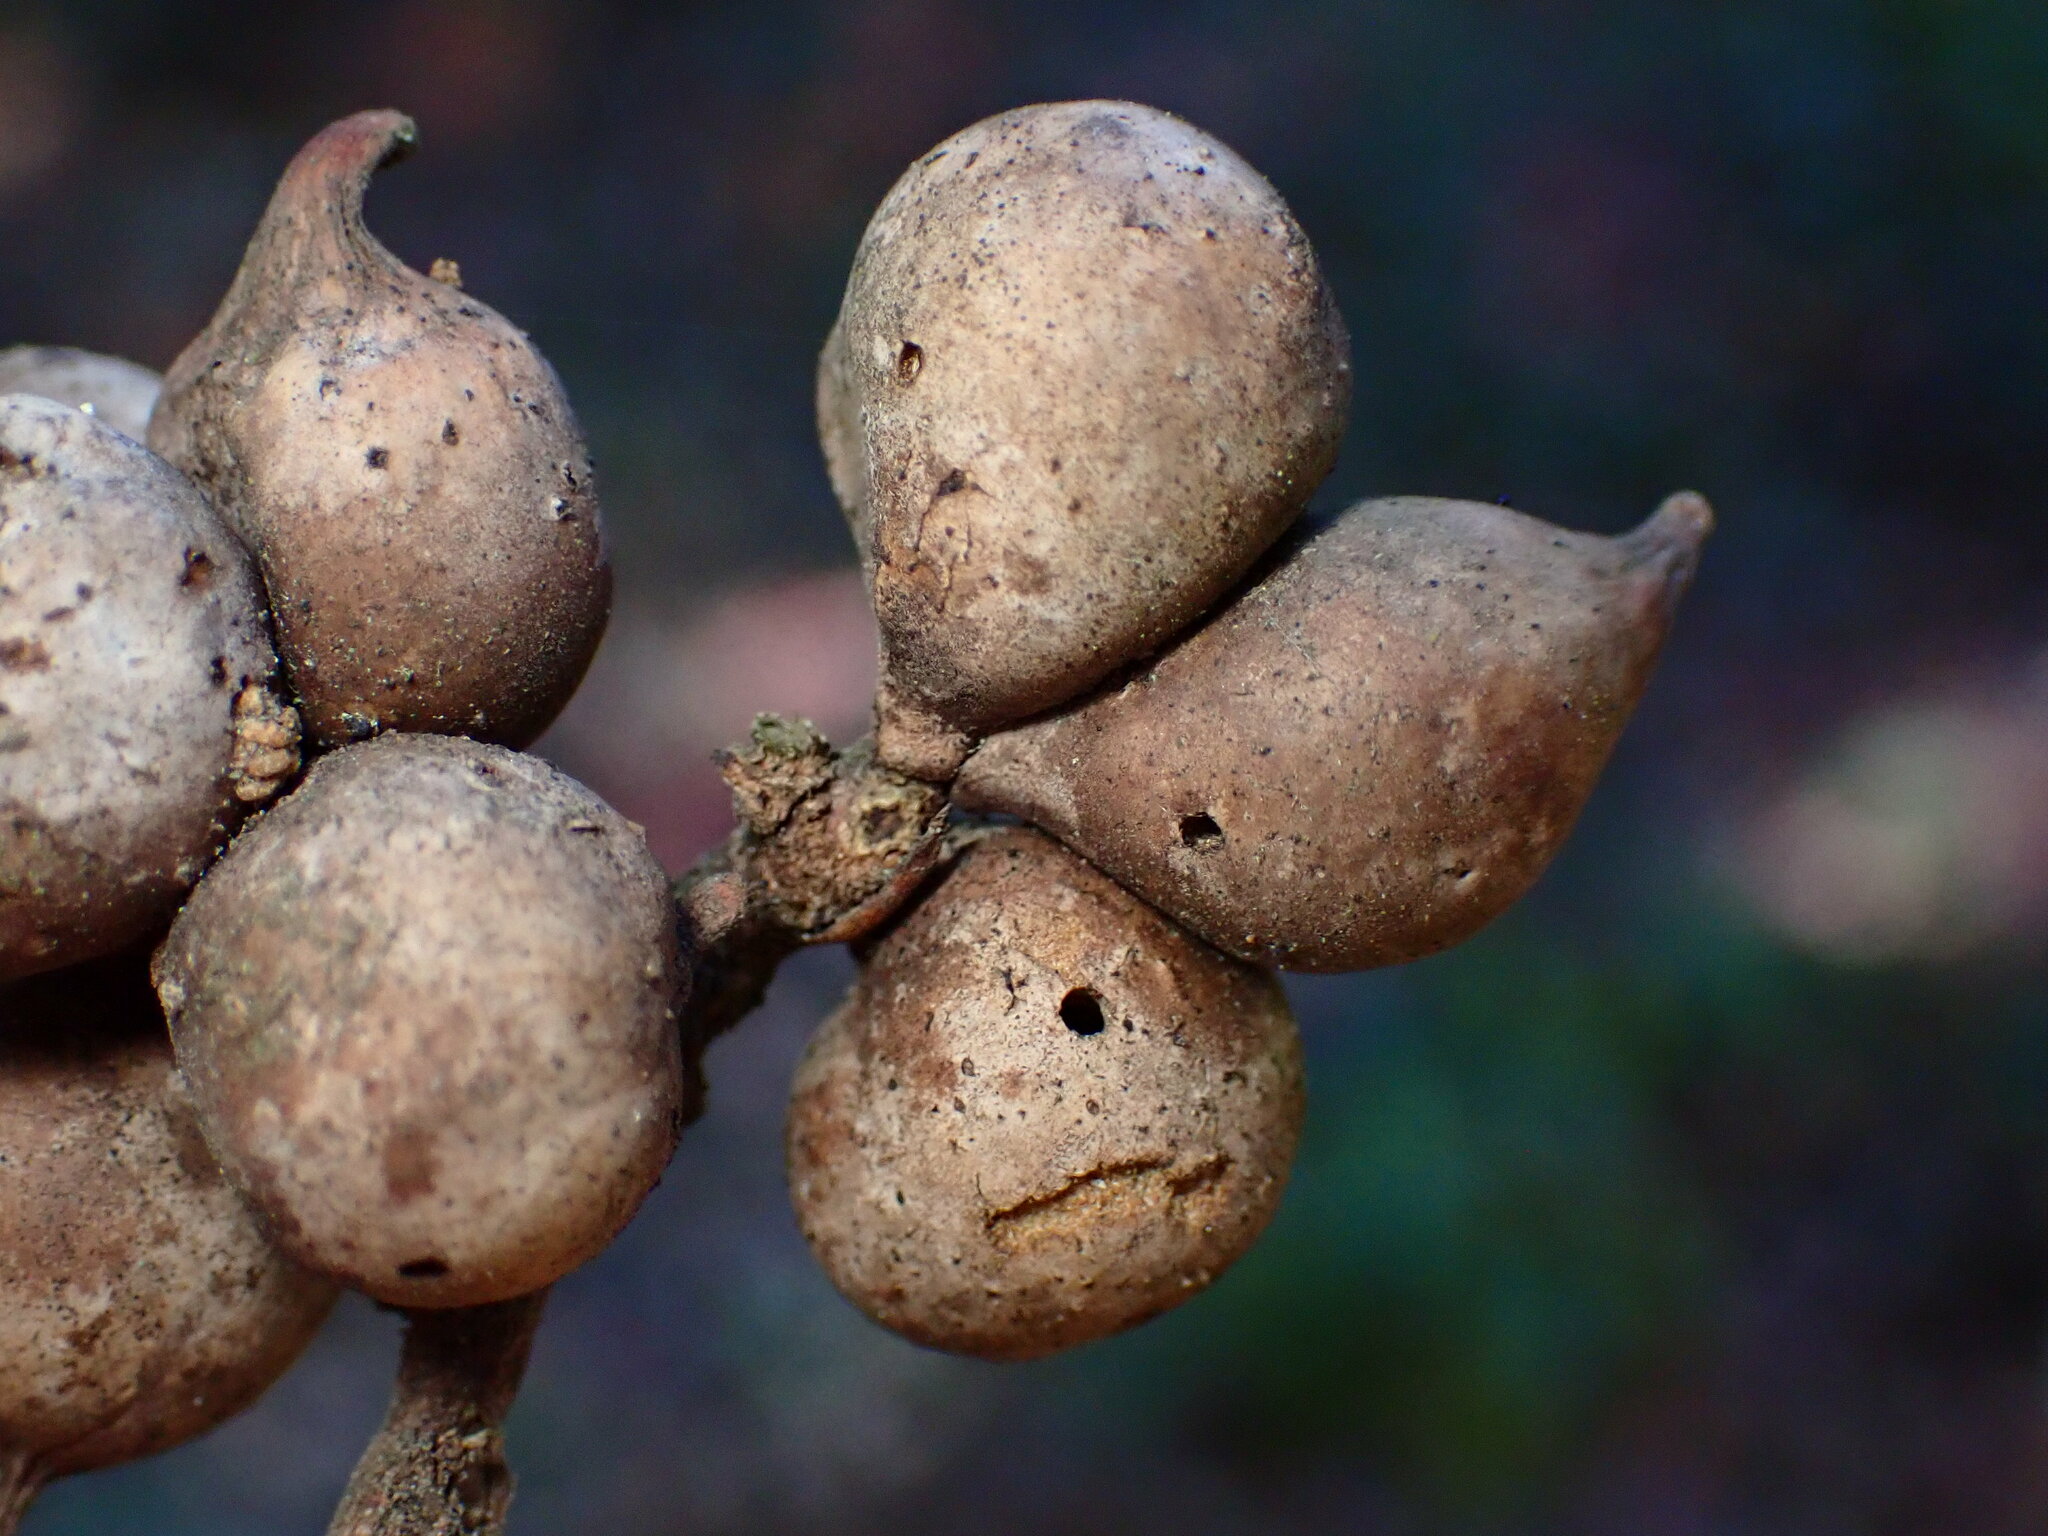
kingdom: Animalia
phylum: Arthropoda
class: Insecta
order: Hymenoptera
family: Cynipidae
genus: Heteroecus
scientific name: Heteroecus
